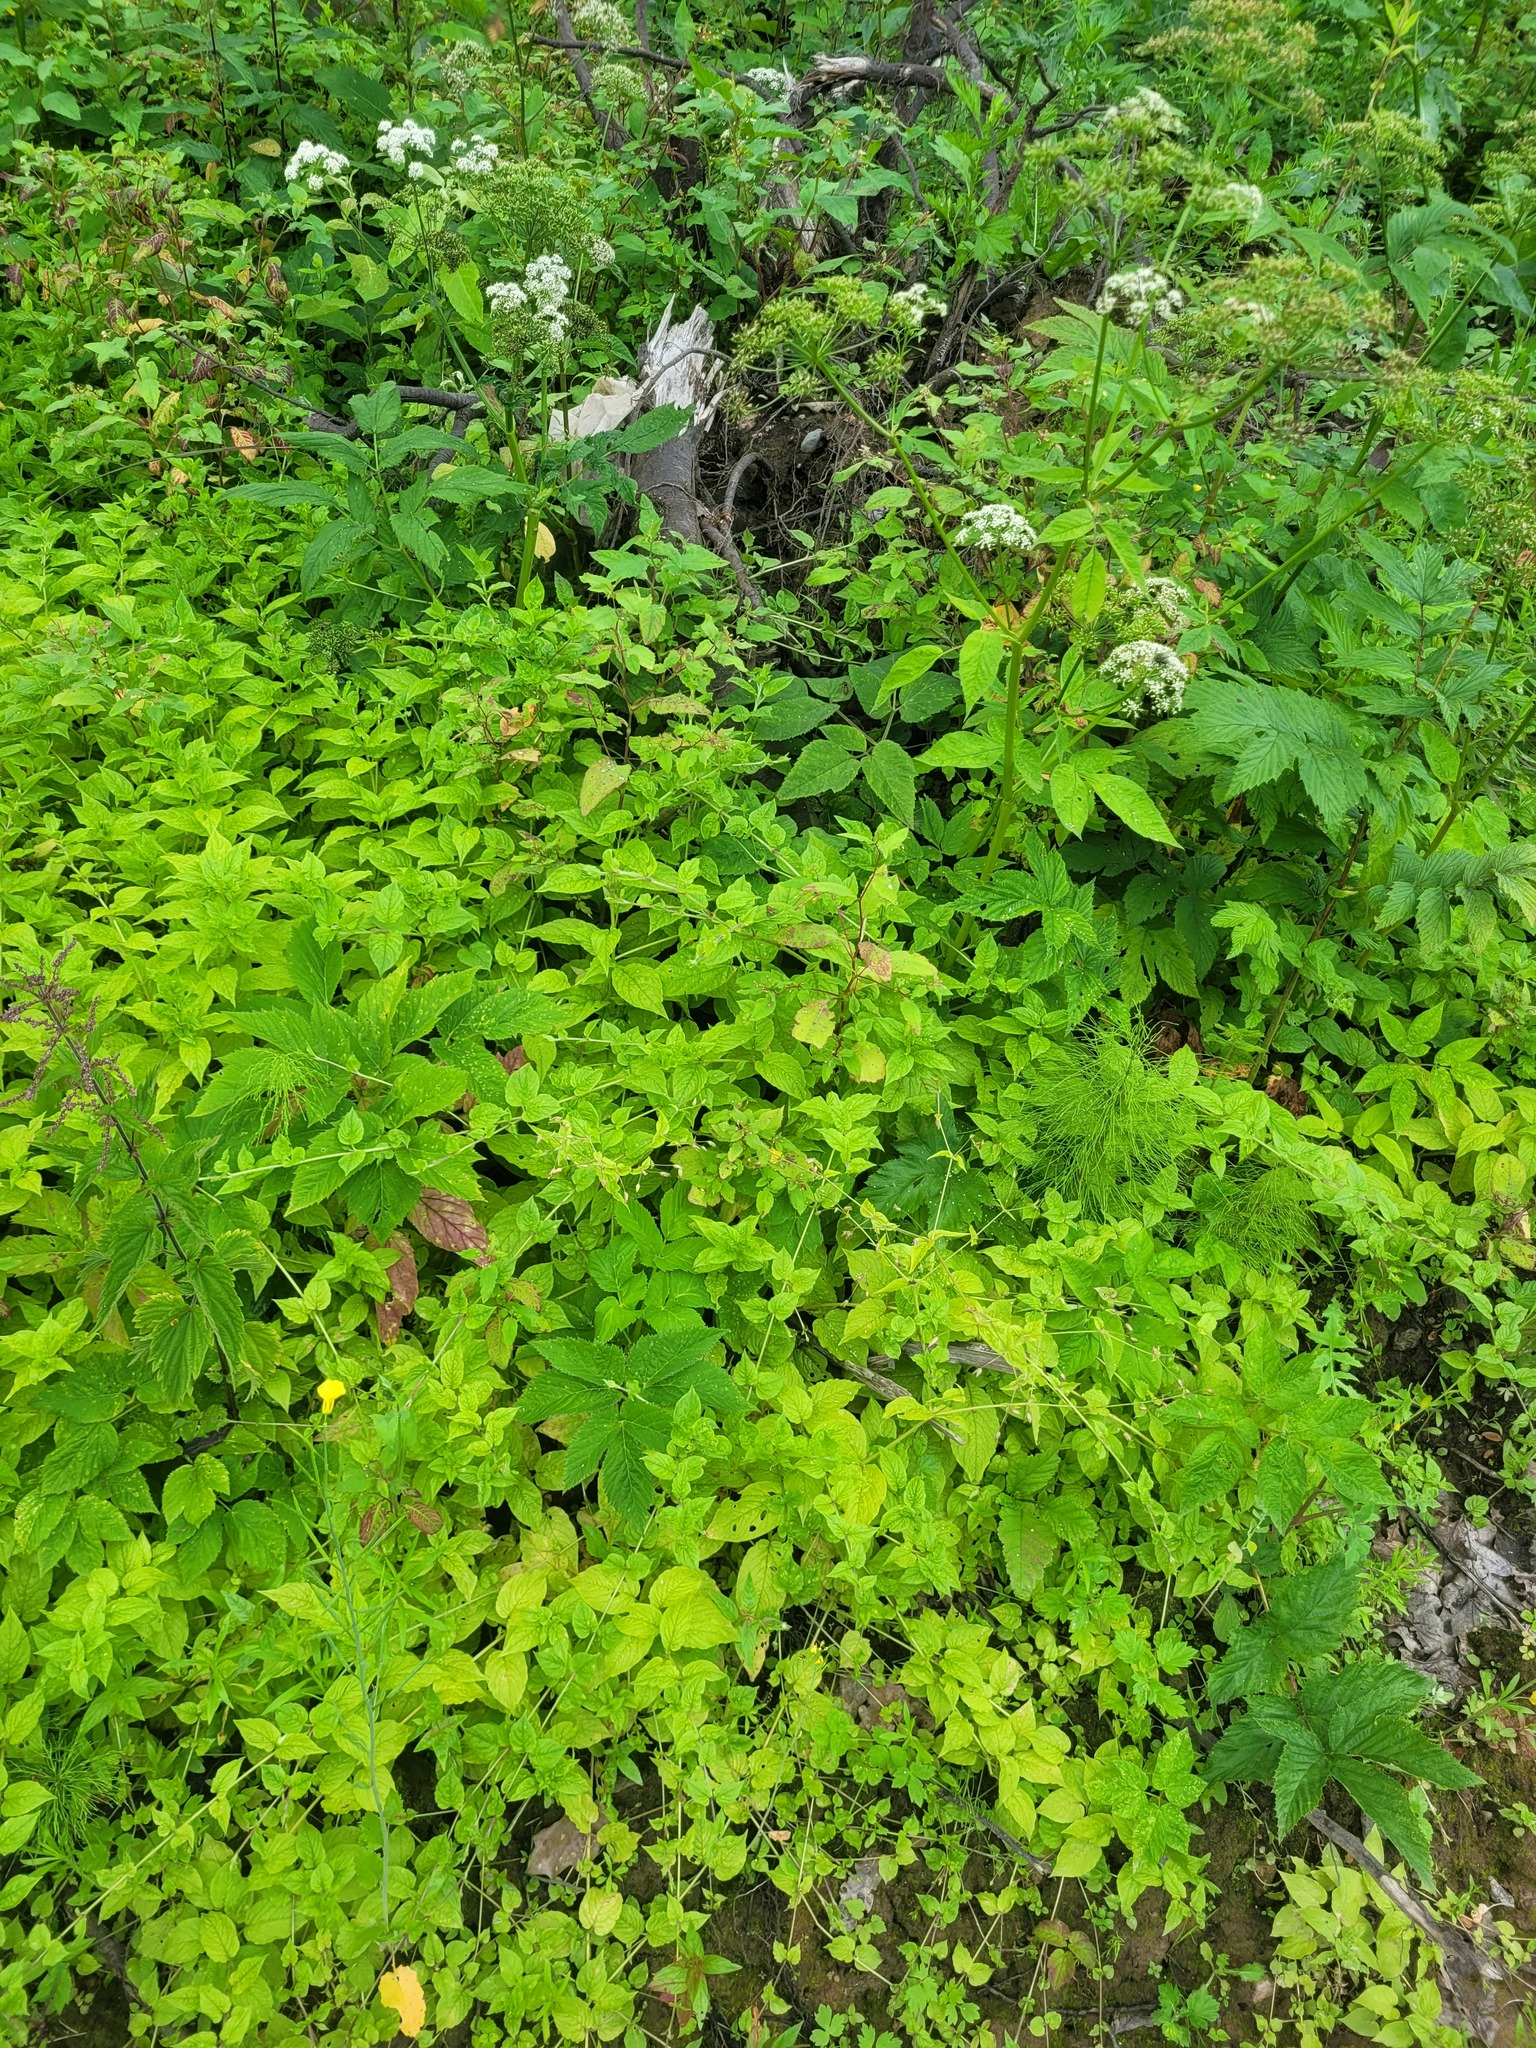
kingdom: Plantae
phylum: Tracheophyta
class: Magnoliopsida
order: Caryophyllales
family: Caryophyllaceae
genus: Stellaria
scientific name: Stellaria nemorum
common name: Wood stitchwort
